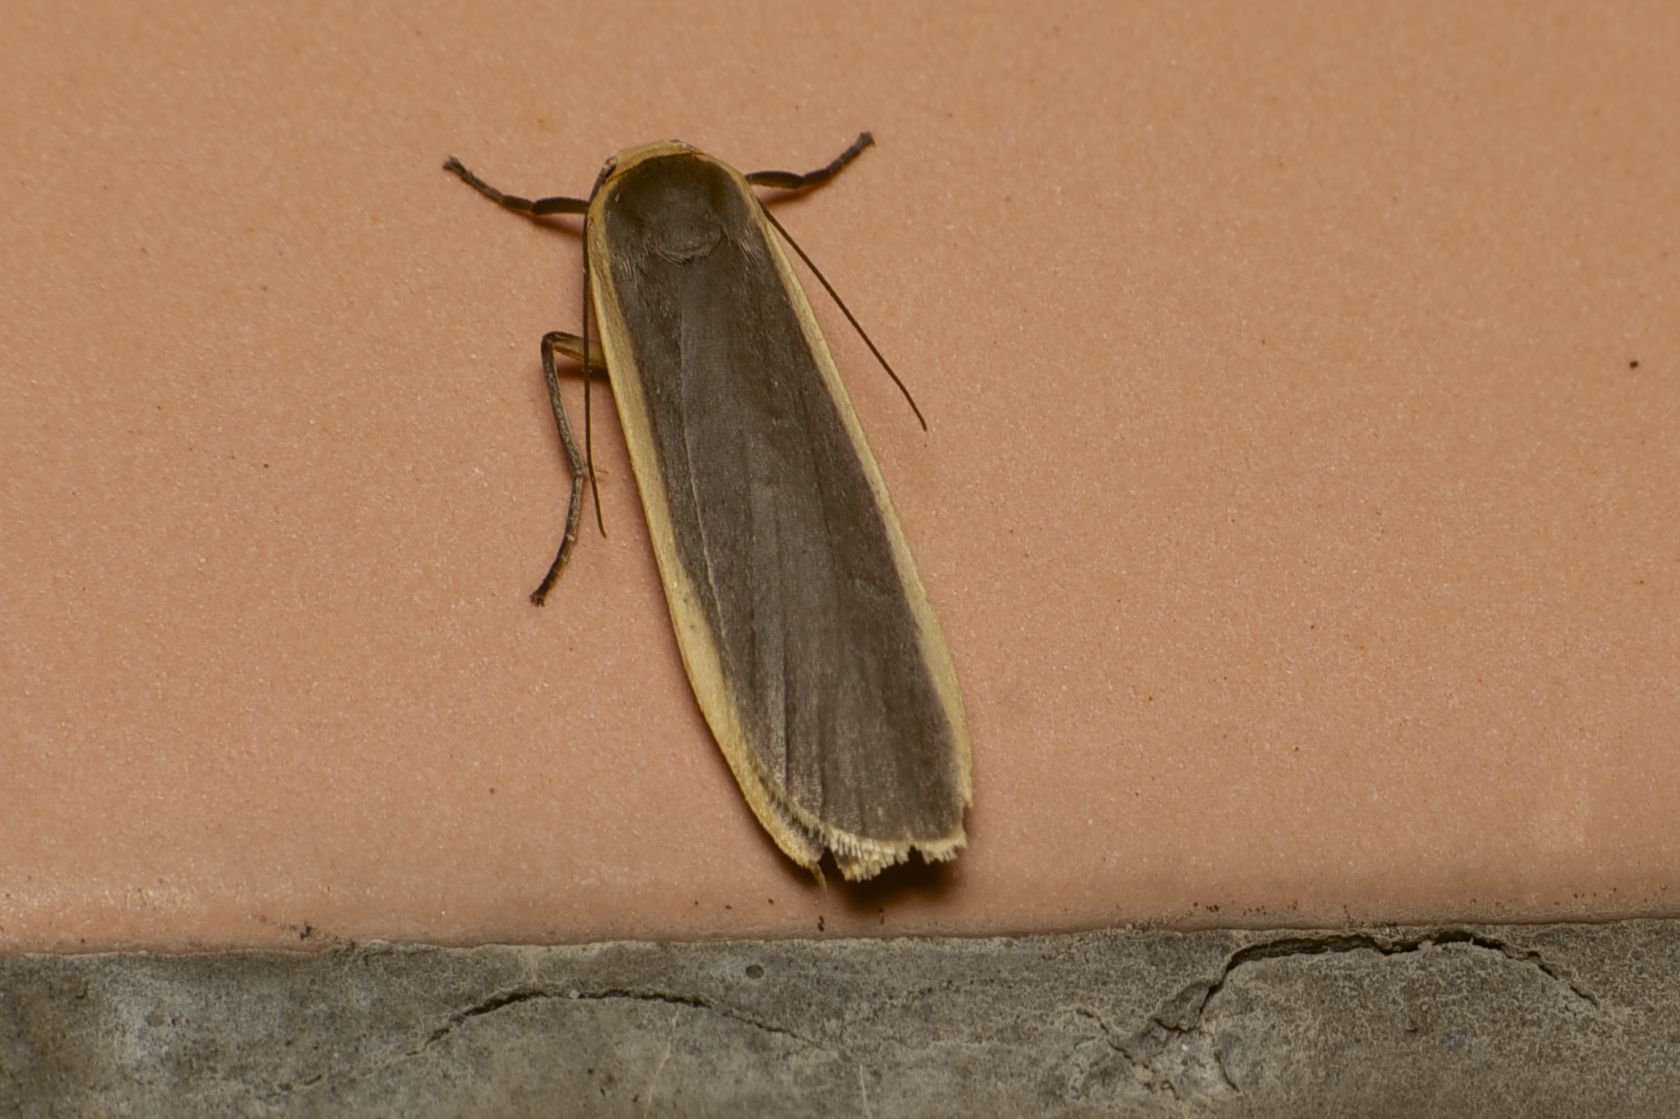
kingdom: Animalia
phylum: Arthropoda
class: Insecta
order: Lepidoptera
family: Erebidae
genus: Brunia
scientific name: Brunia antica
